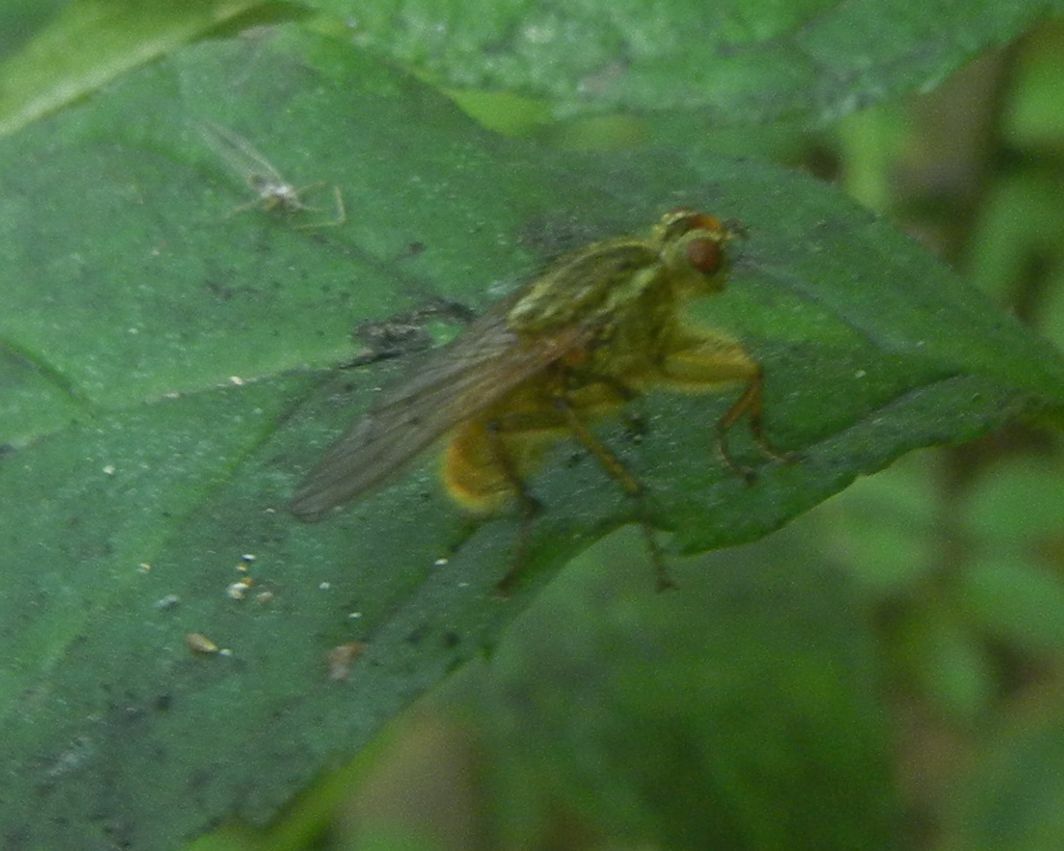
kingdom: Animalia
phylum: Arthropoda
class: Insecta
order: Diptera
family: Scathophagidae
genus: Scathophaga
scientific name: Scathophaga stercoraria
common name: Yellow dung fly
